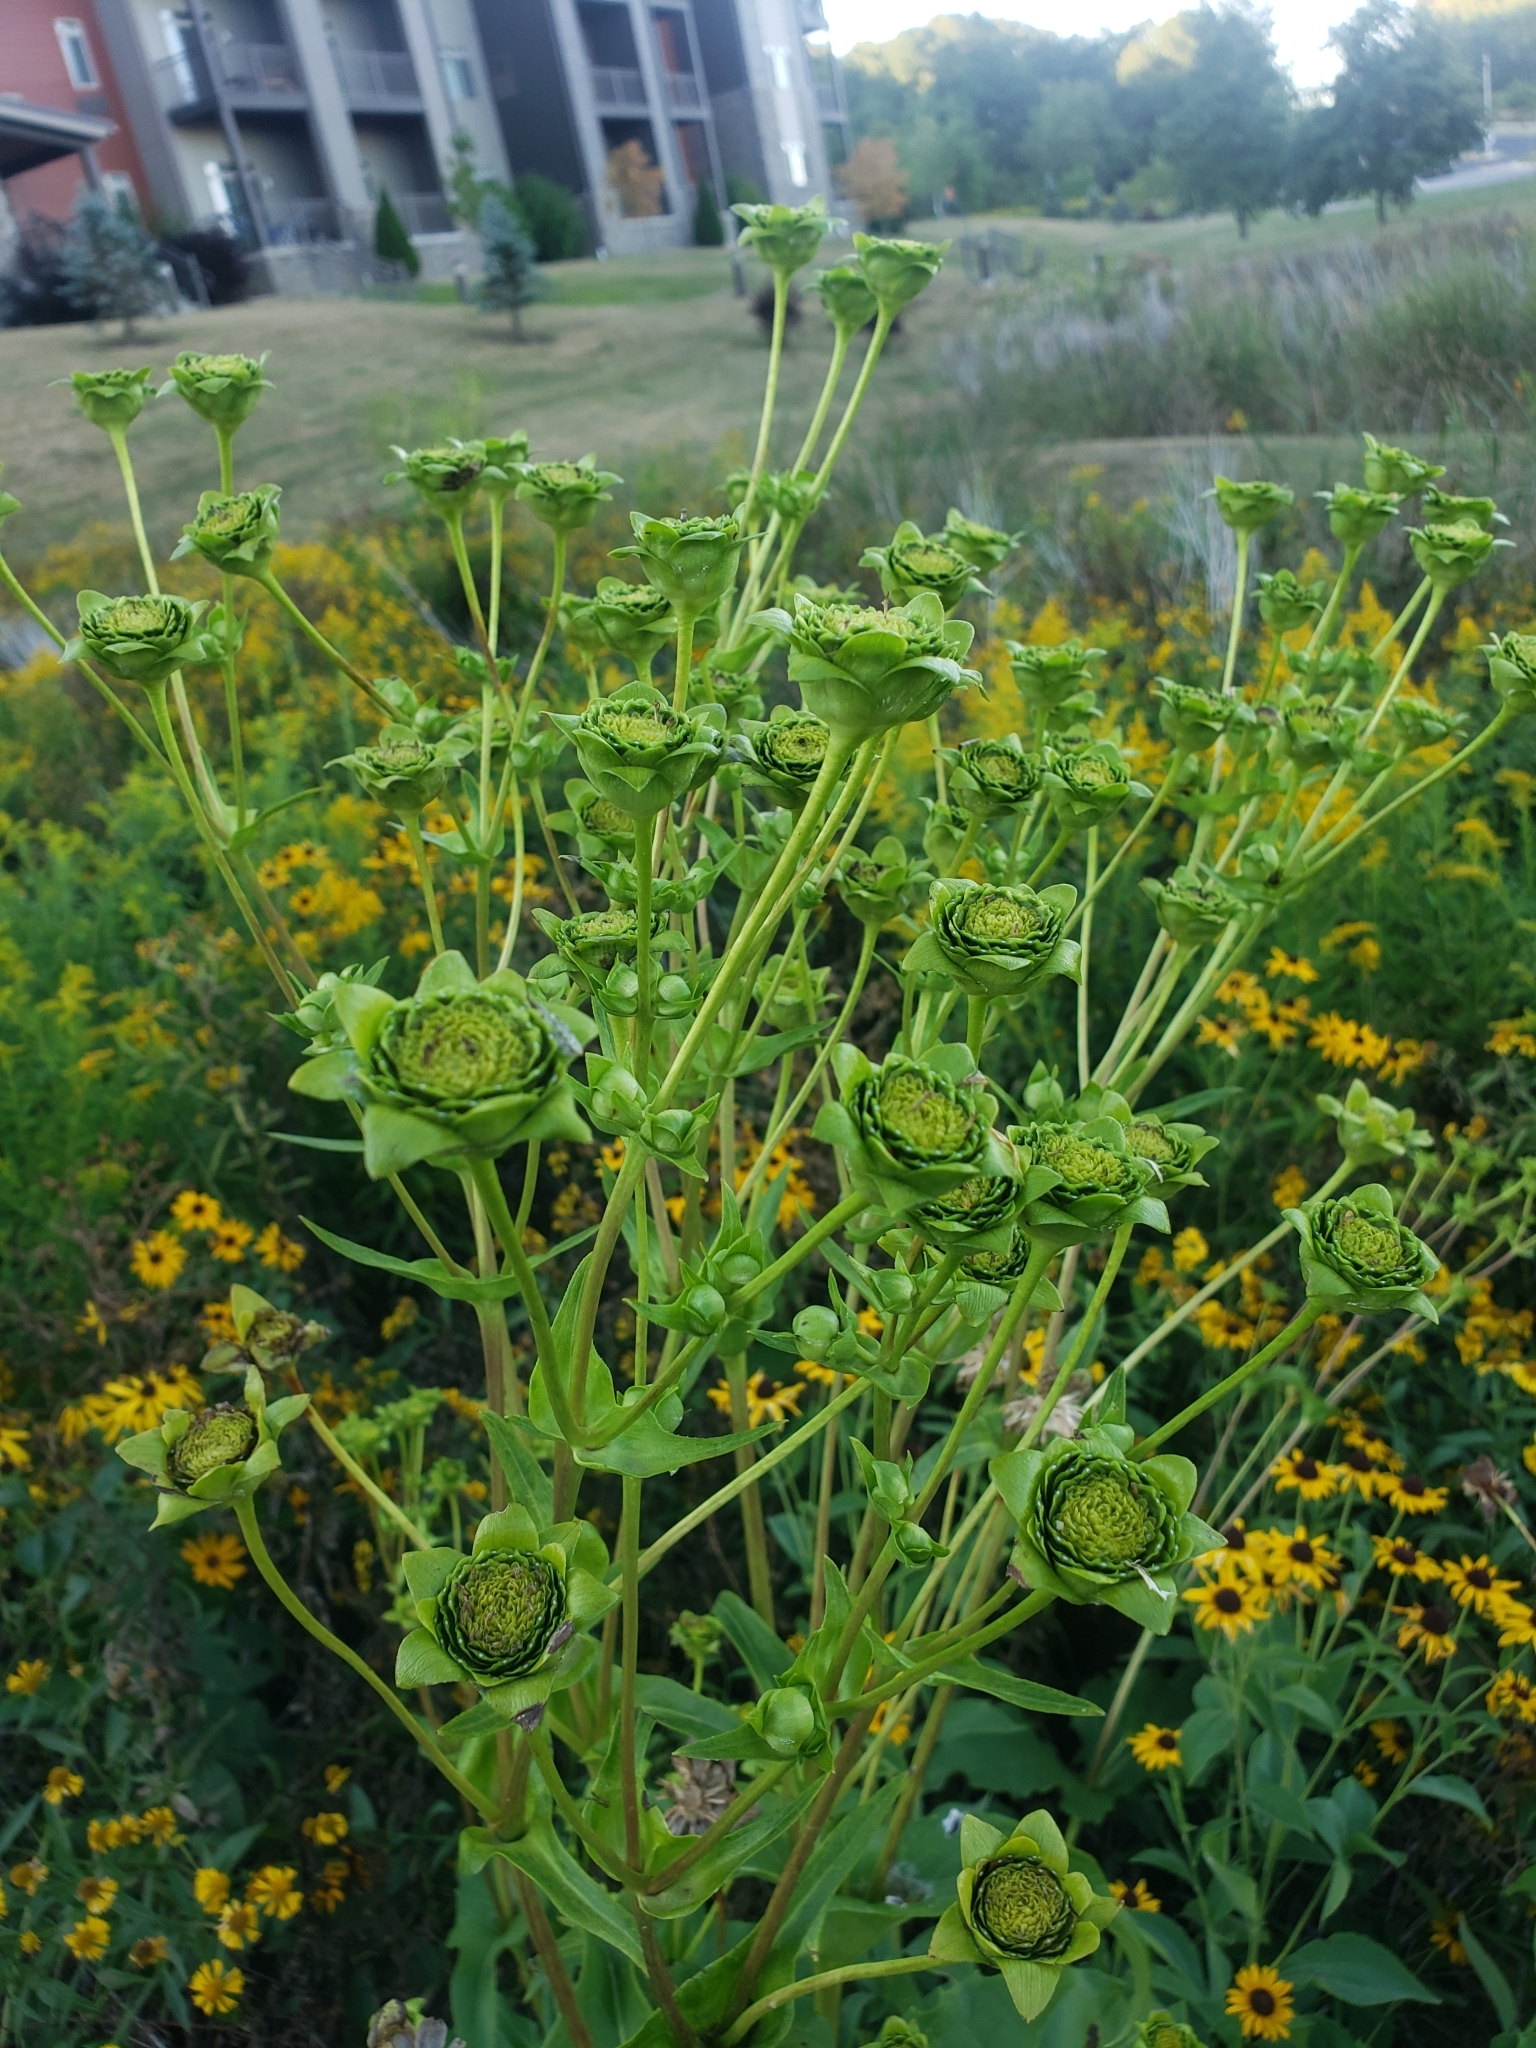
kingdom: Plantae
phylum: Tracheophyta
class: Magnoliopsida
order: Asterales
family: Asteraceae
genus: Silphium
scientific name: Silphium perfoliatum
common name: Cup-plant
